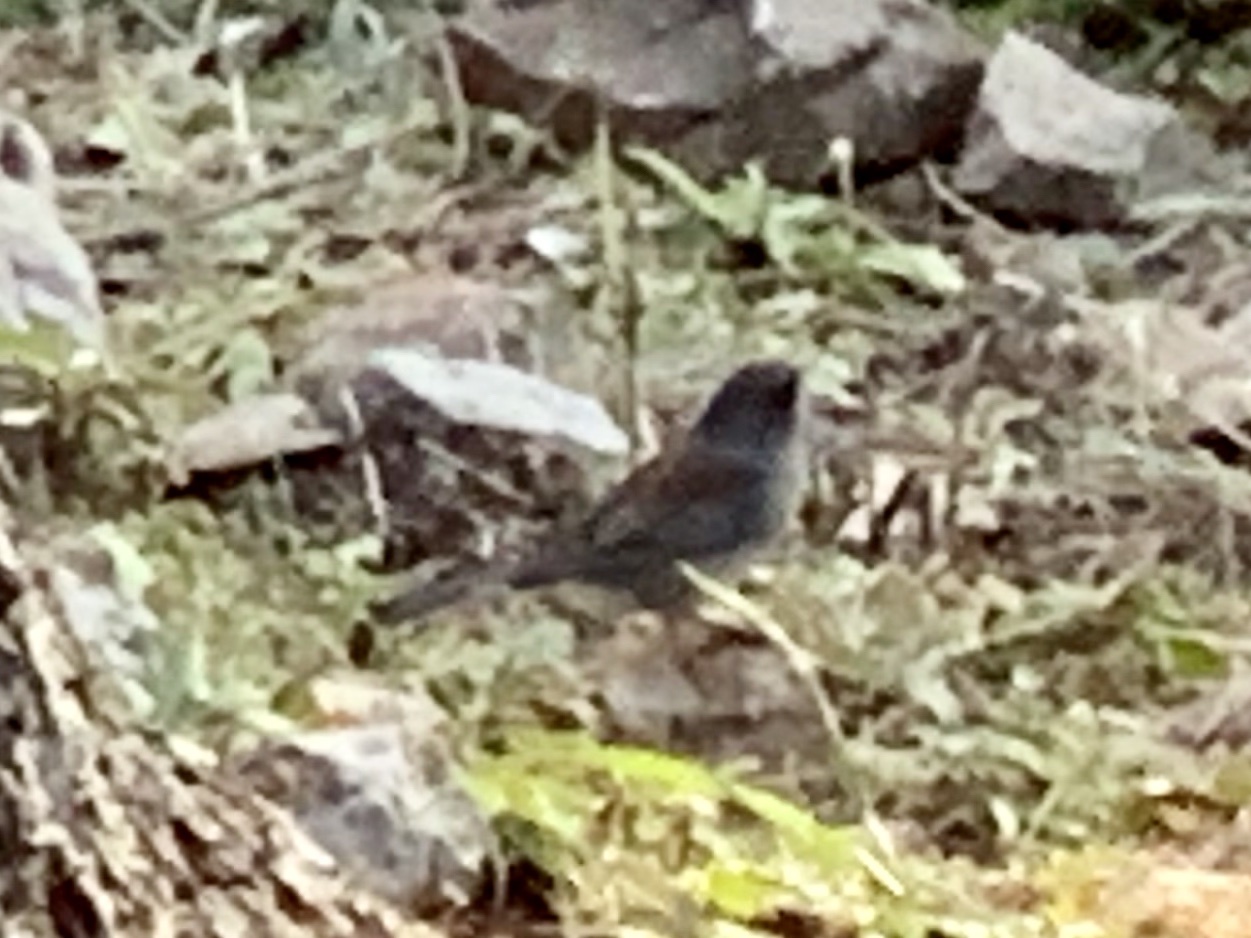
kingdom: Animalia
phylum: Chordata
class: Aves
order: Passeriformes
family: Passerellidae
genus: Junco
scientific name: Junco hyemalis
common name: Dark-eyed junco
